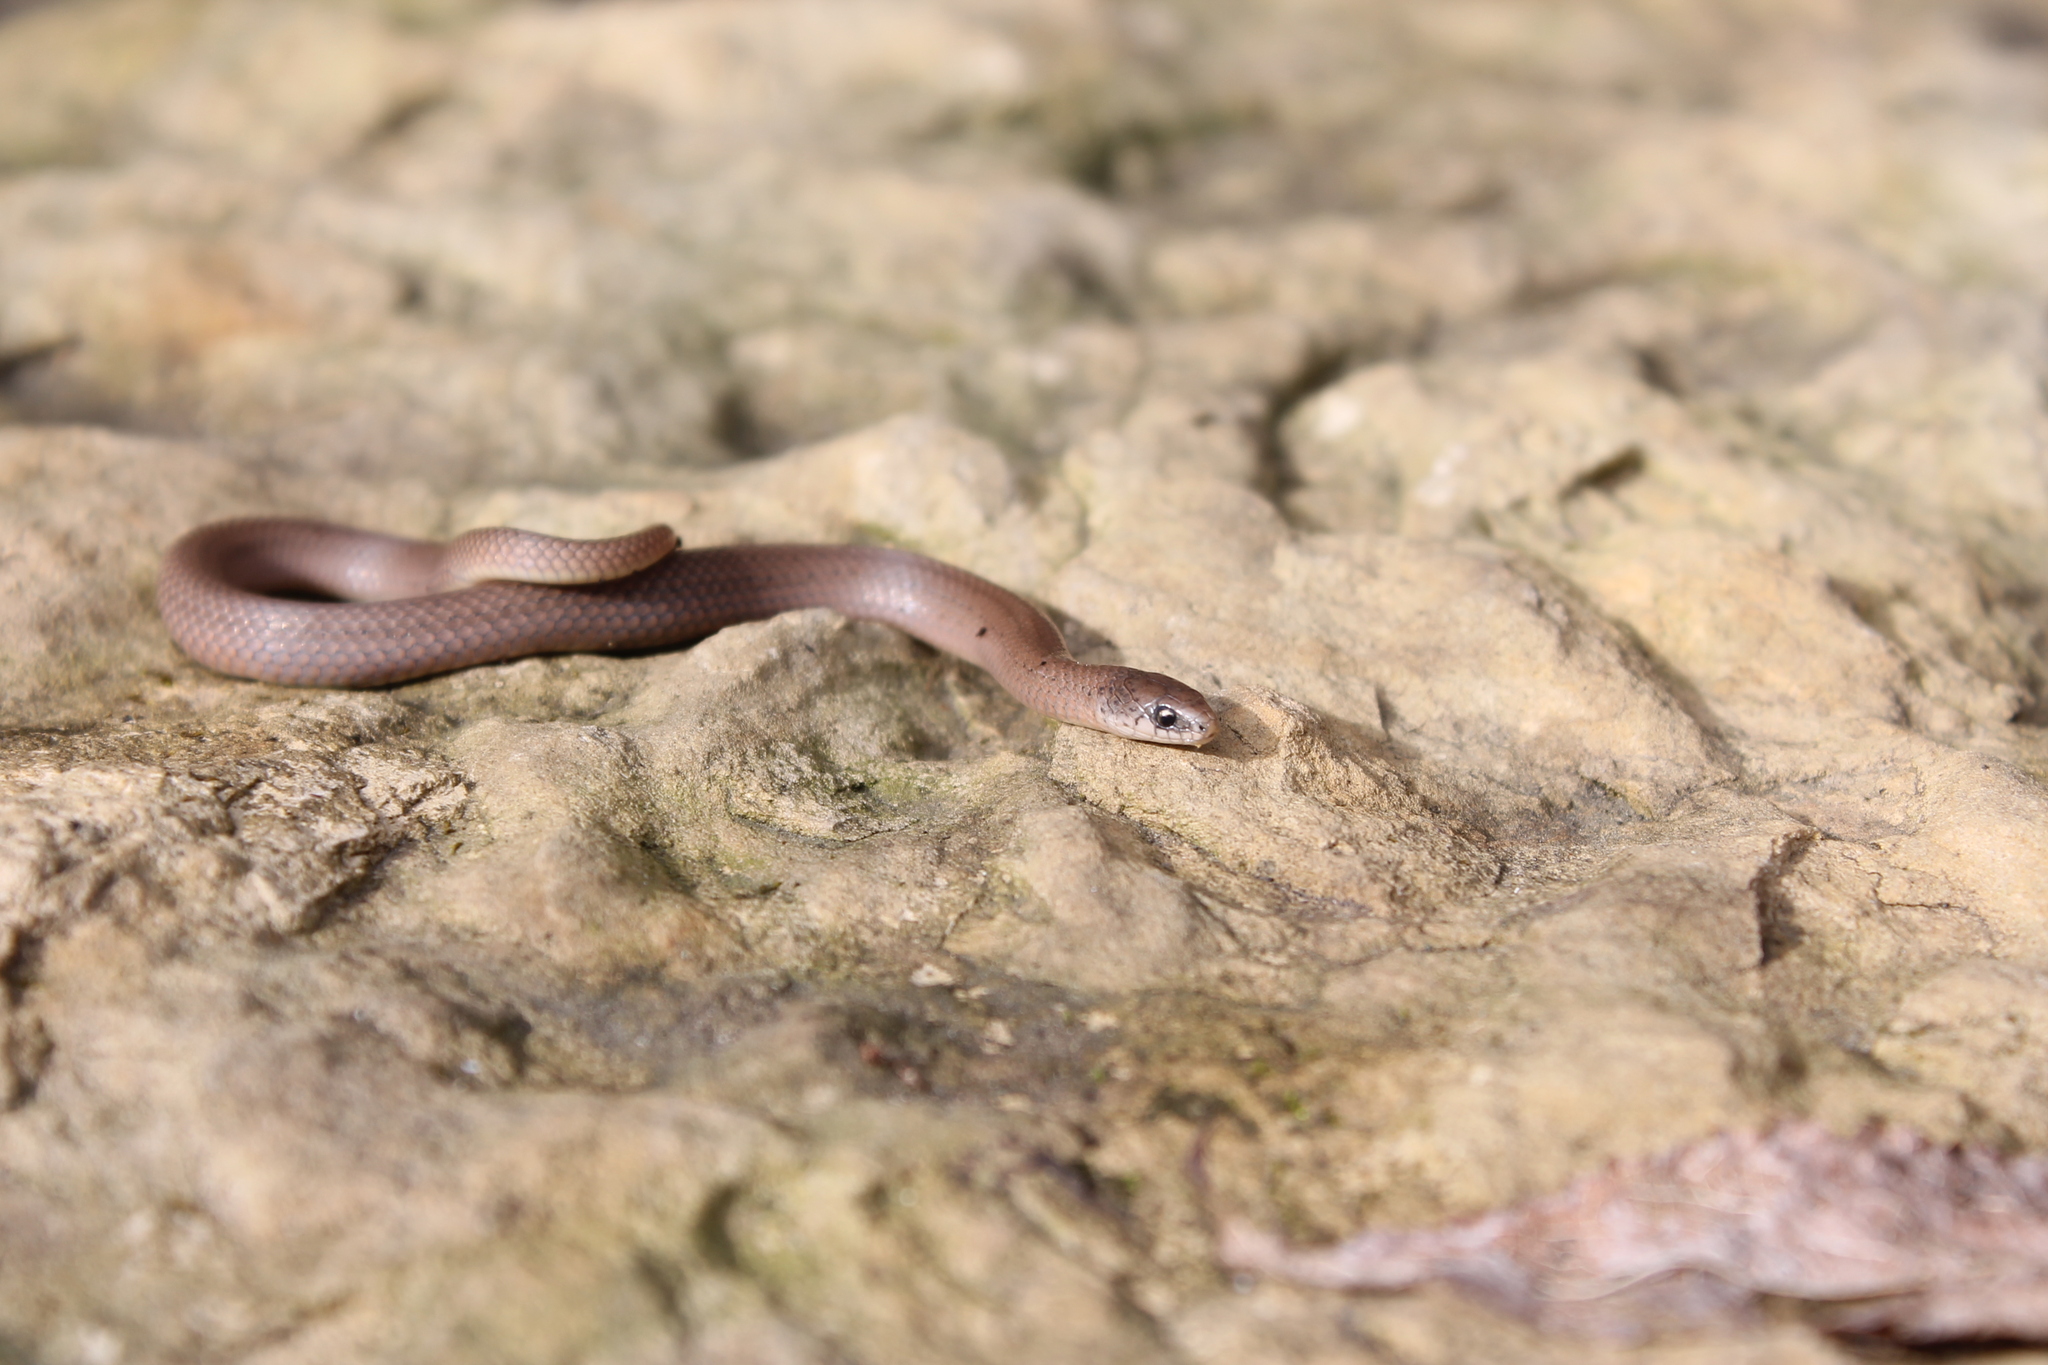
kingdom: Animalia
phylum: Chordata
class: Squamata
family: Colubridae
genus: Virginia
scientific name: Virginia valeriae
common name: Smooth earth snake
